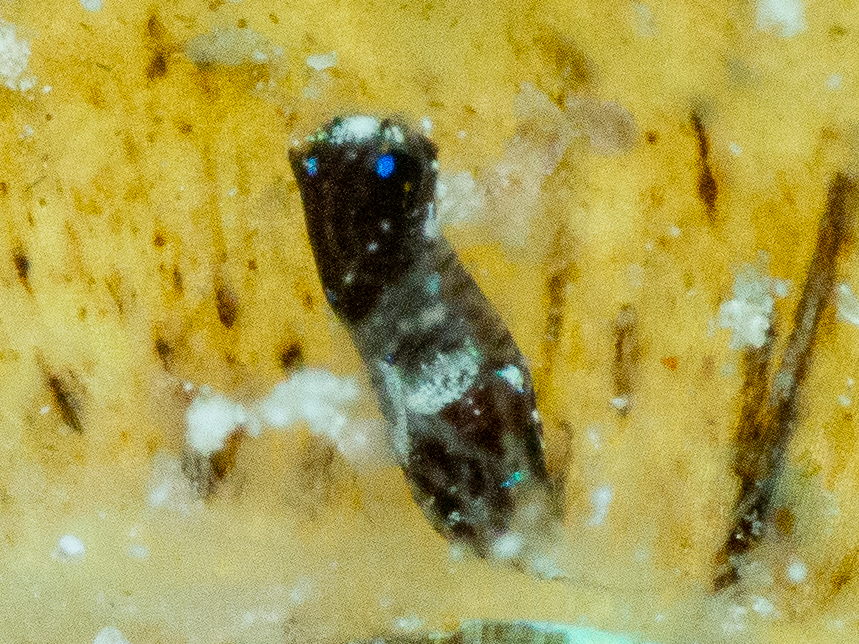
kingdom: Animalia
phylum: Mollusca
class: Gastropoda
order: Cephalaspidea
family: Aglajidae
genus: Chelidonura
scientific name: Chelidonura cubana
